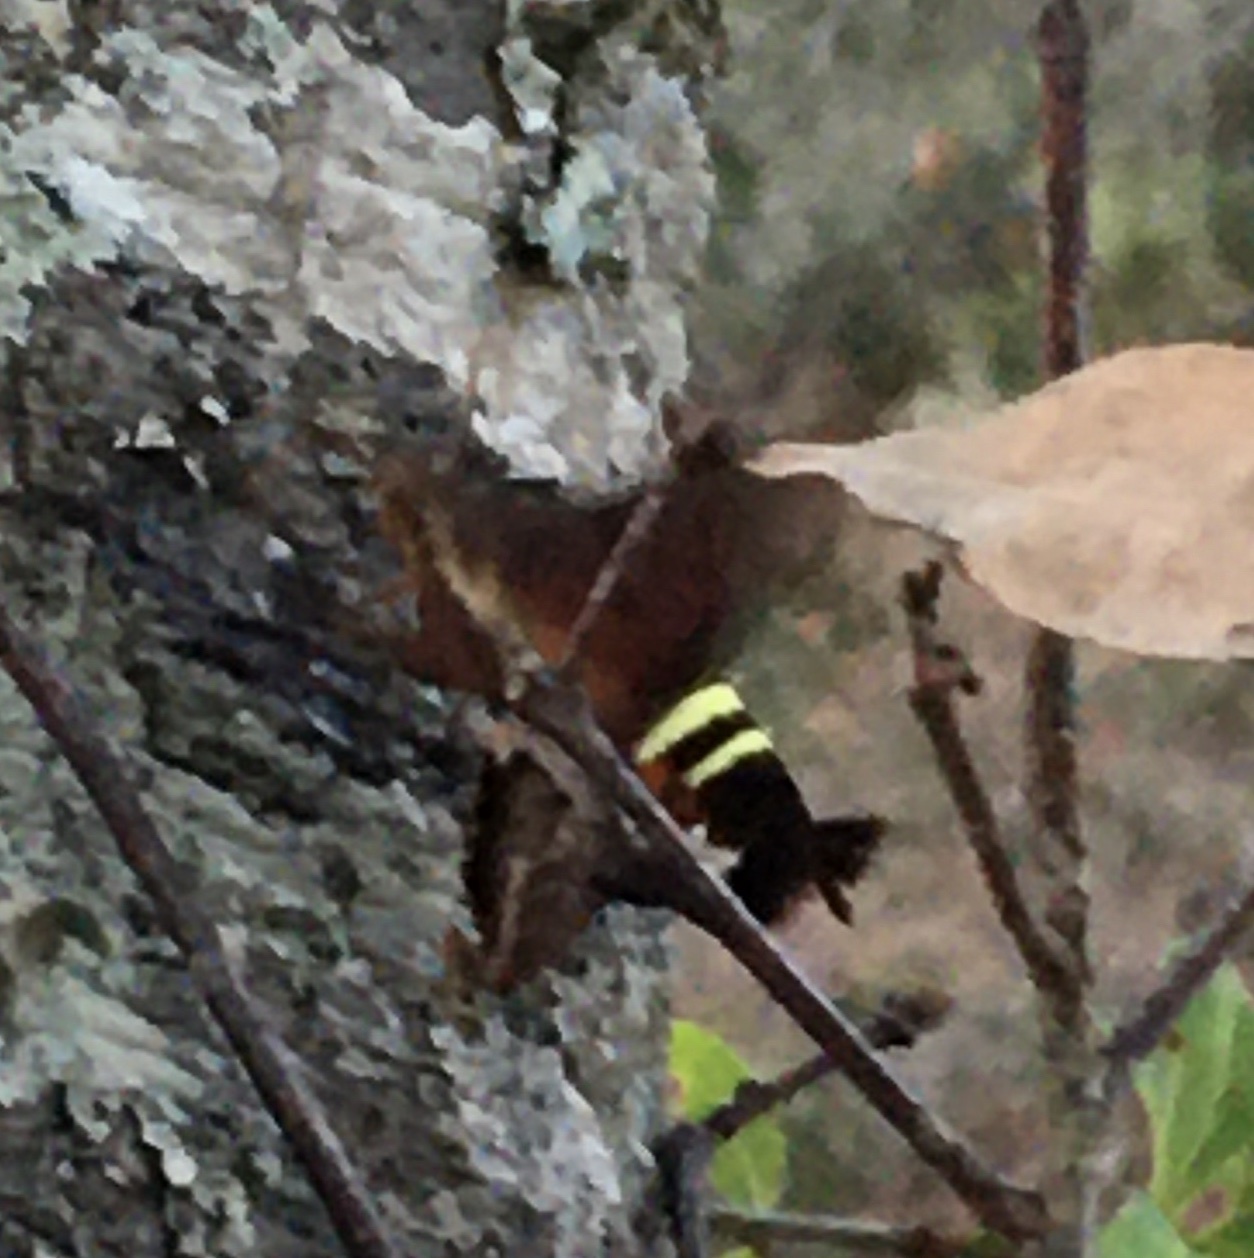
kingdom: Animalia
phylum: Arthropoda
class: Insecta
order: Lepidoptera
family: Sphingidae
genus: Amphion
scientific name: Amphion floridensis
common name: Nessus sphinx
